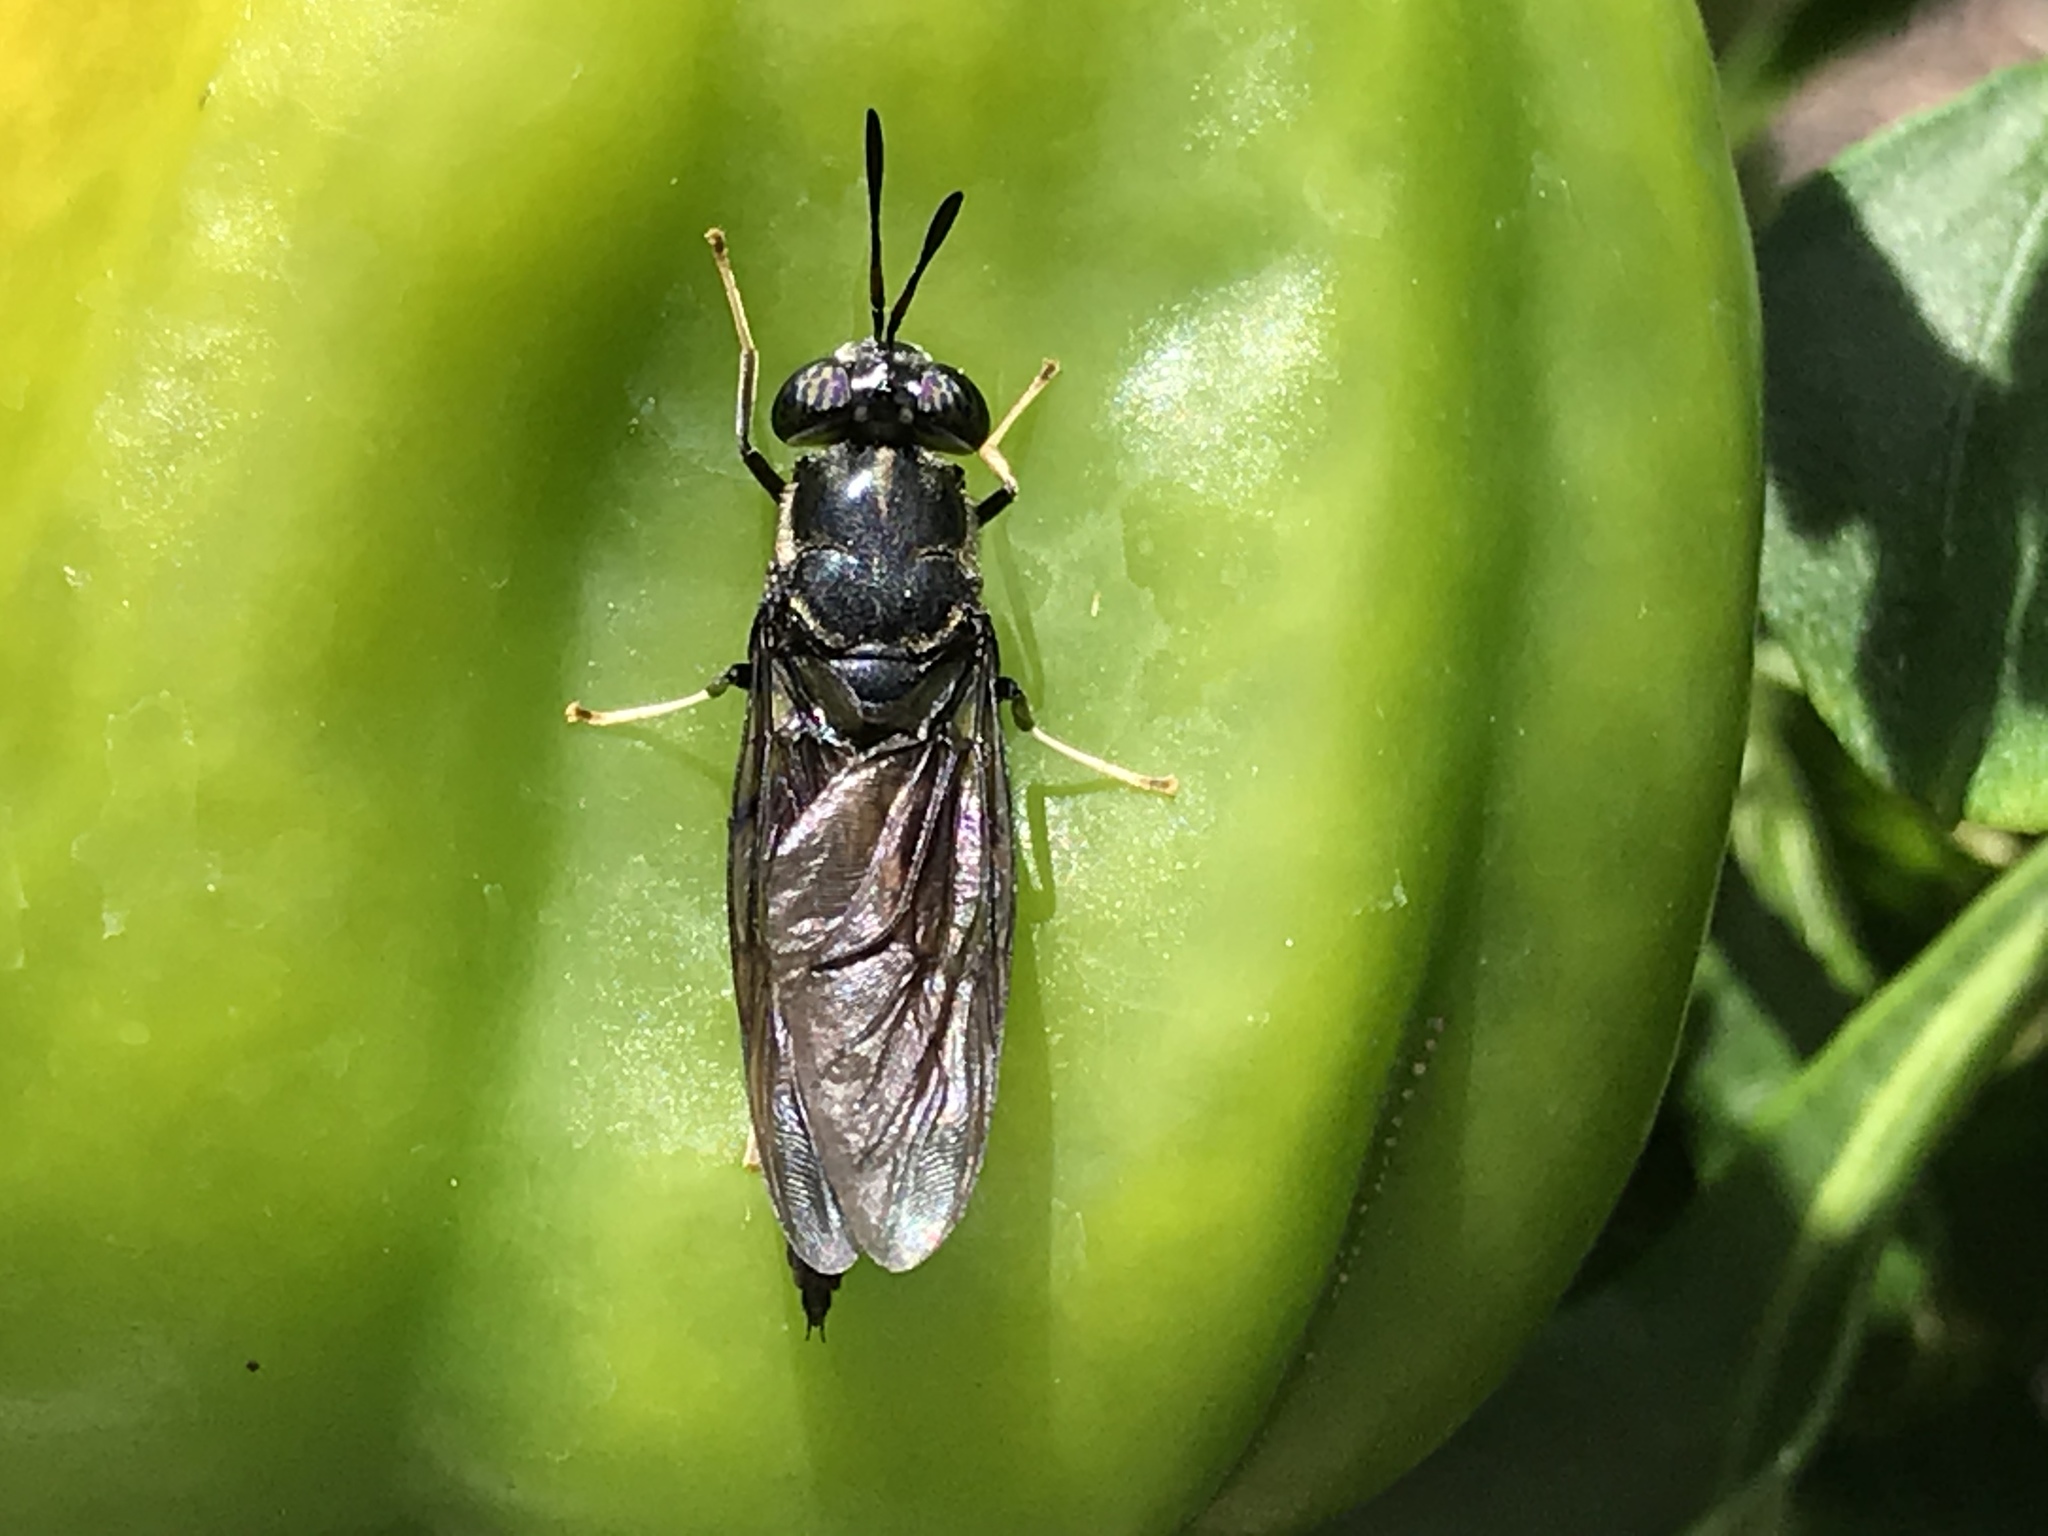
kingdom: Animalia
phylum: Arthropoda
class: Insecta
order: Diptera
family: Stratiomyidae
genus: Hermetia
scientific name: Hermetia illucens
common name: Black soldier fly
